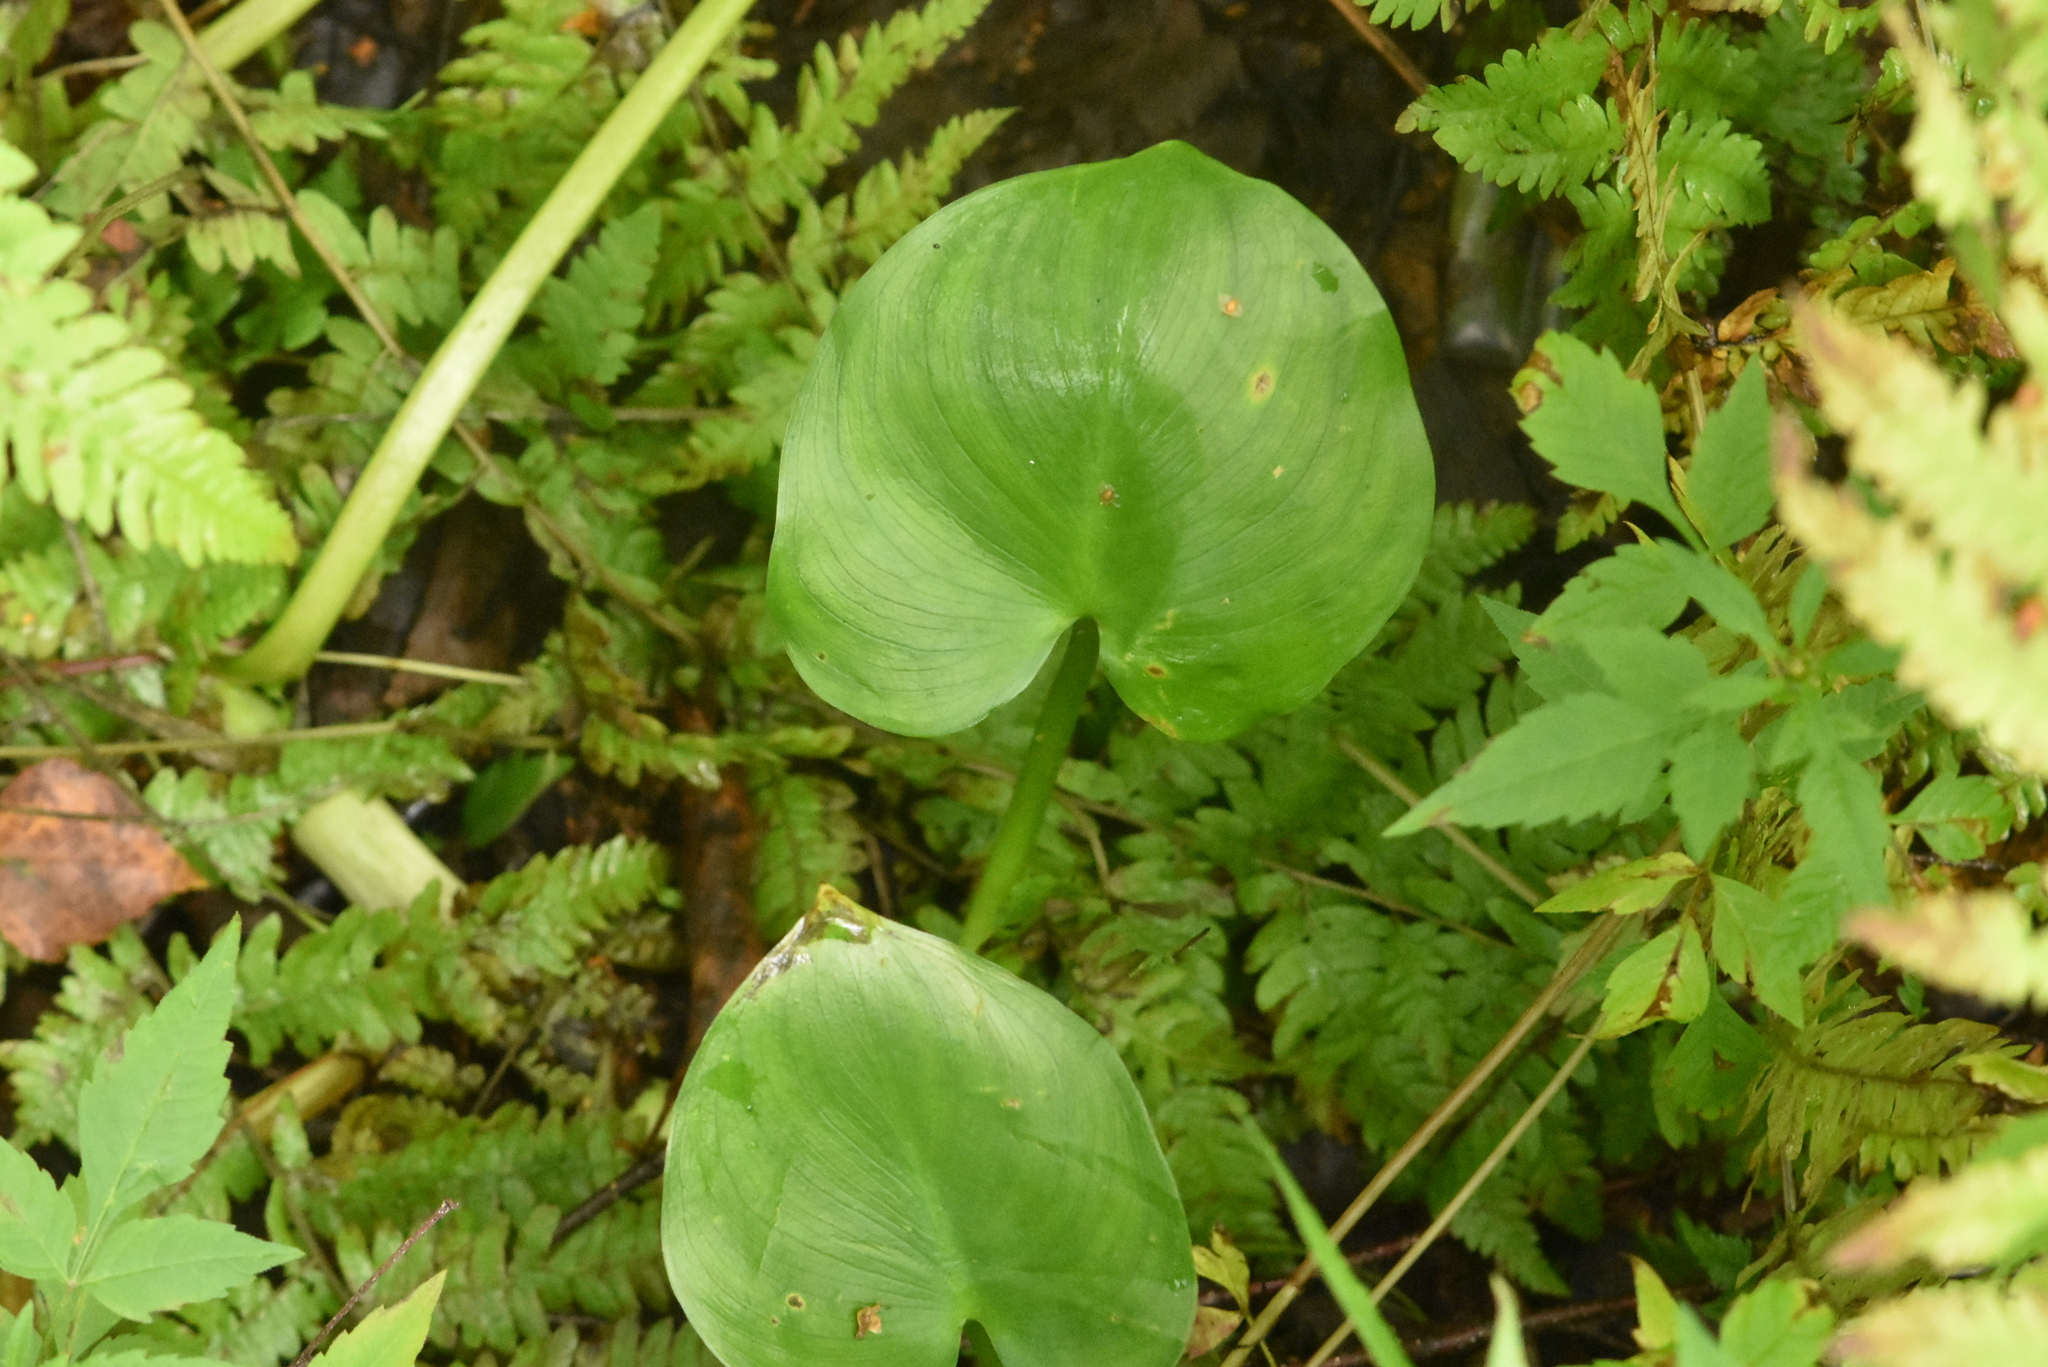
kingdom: Plantae
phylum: Tracheophyta
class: Liliopsida
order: Alismatales
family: Araceae
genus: Calla
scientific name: Calla palustris
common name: Bog arum
